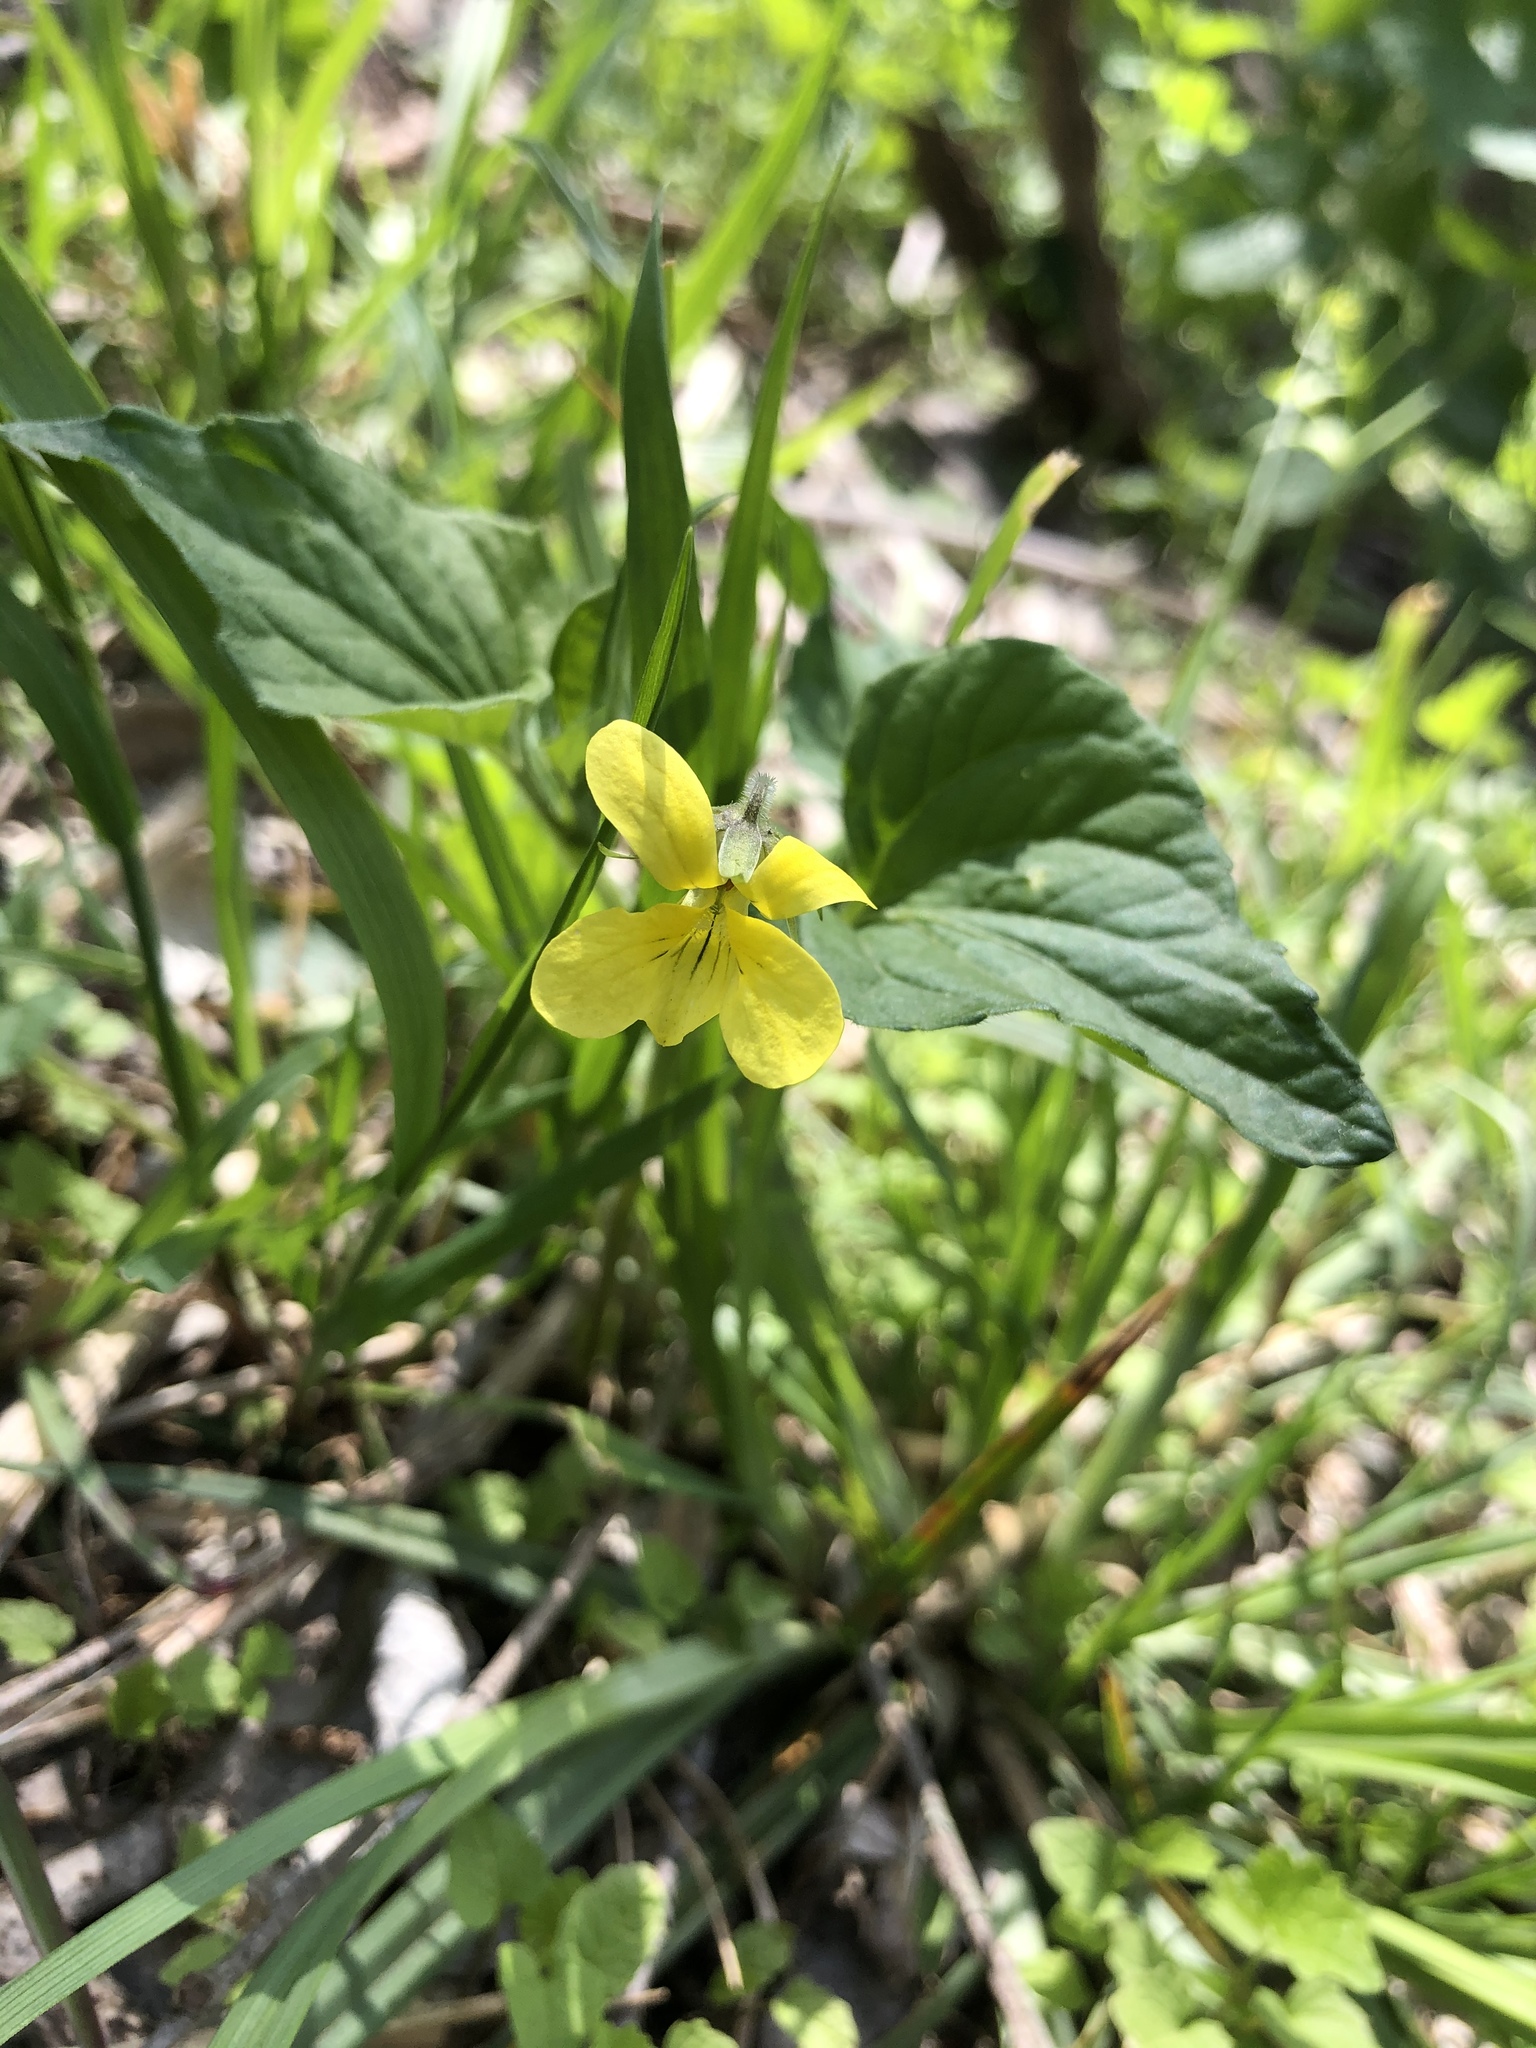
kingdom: Plantae
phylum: Tracheophyta
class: Magnoliopsida
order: Malpighiales
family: Violaceae
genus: Viola
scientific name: Viola eriocarpa
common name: Smooth yellow violet
